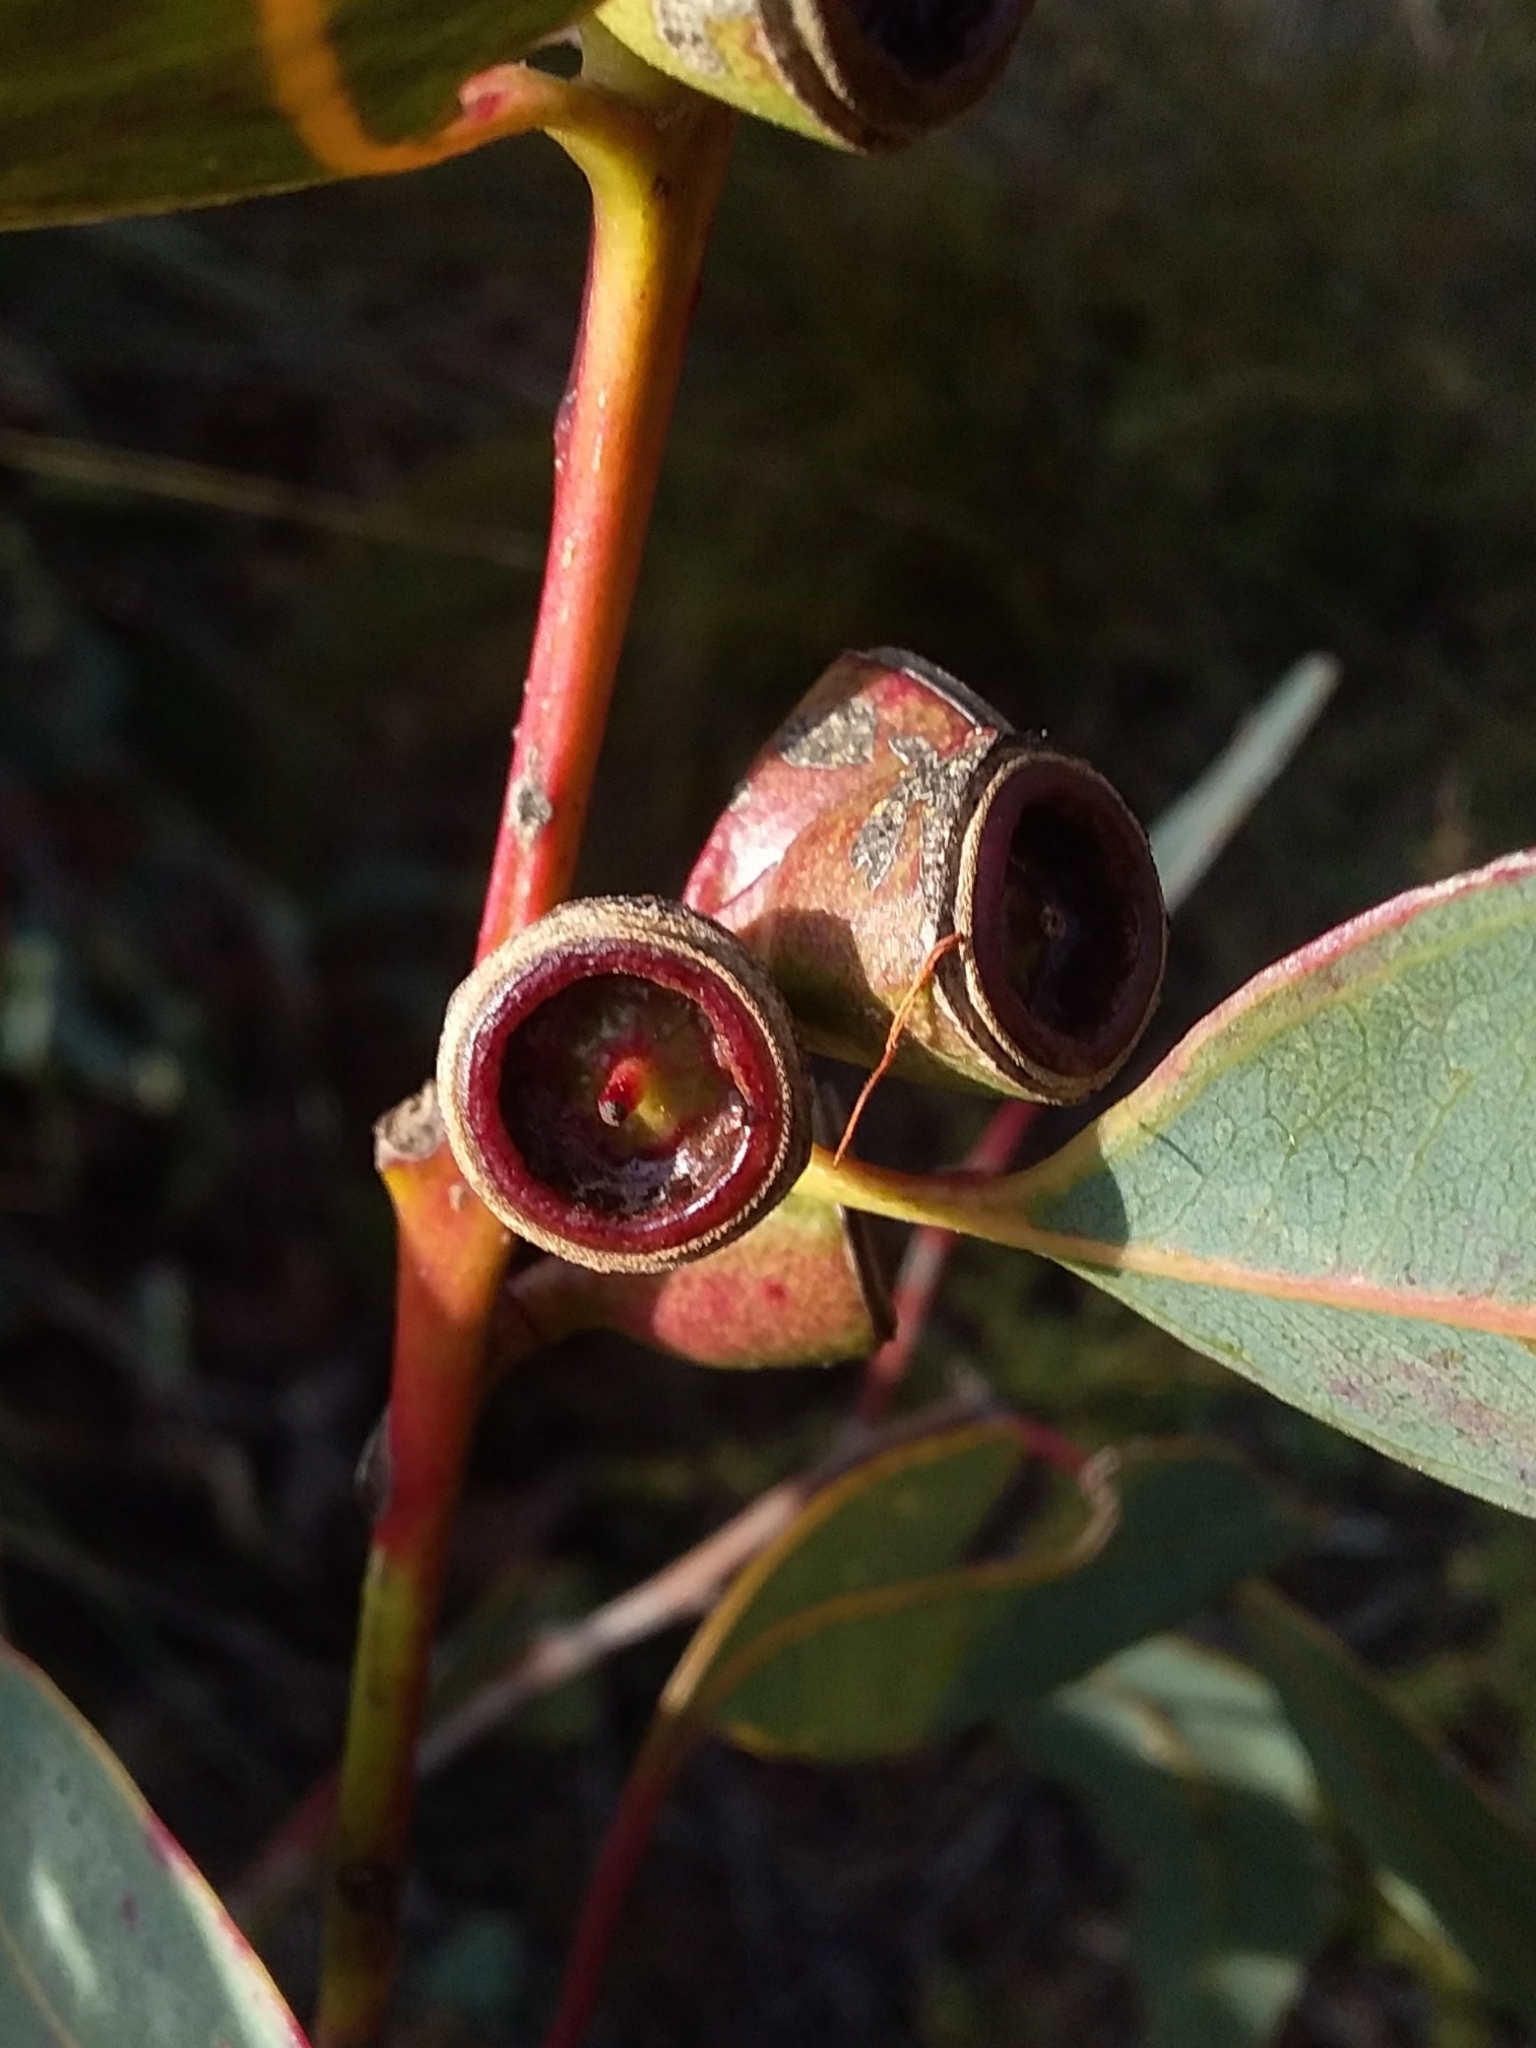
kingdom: Plantae
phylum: Tracheophyta
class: Magnoliopsida
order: Myrtales
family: Myrtaceae
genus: Eucalyptus
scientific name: Eucalyptus cosmophylla
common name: Bog-gum
